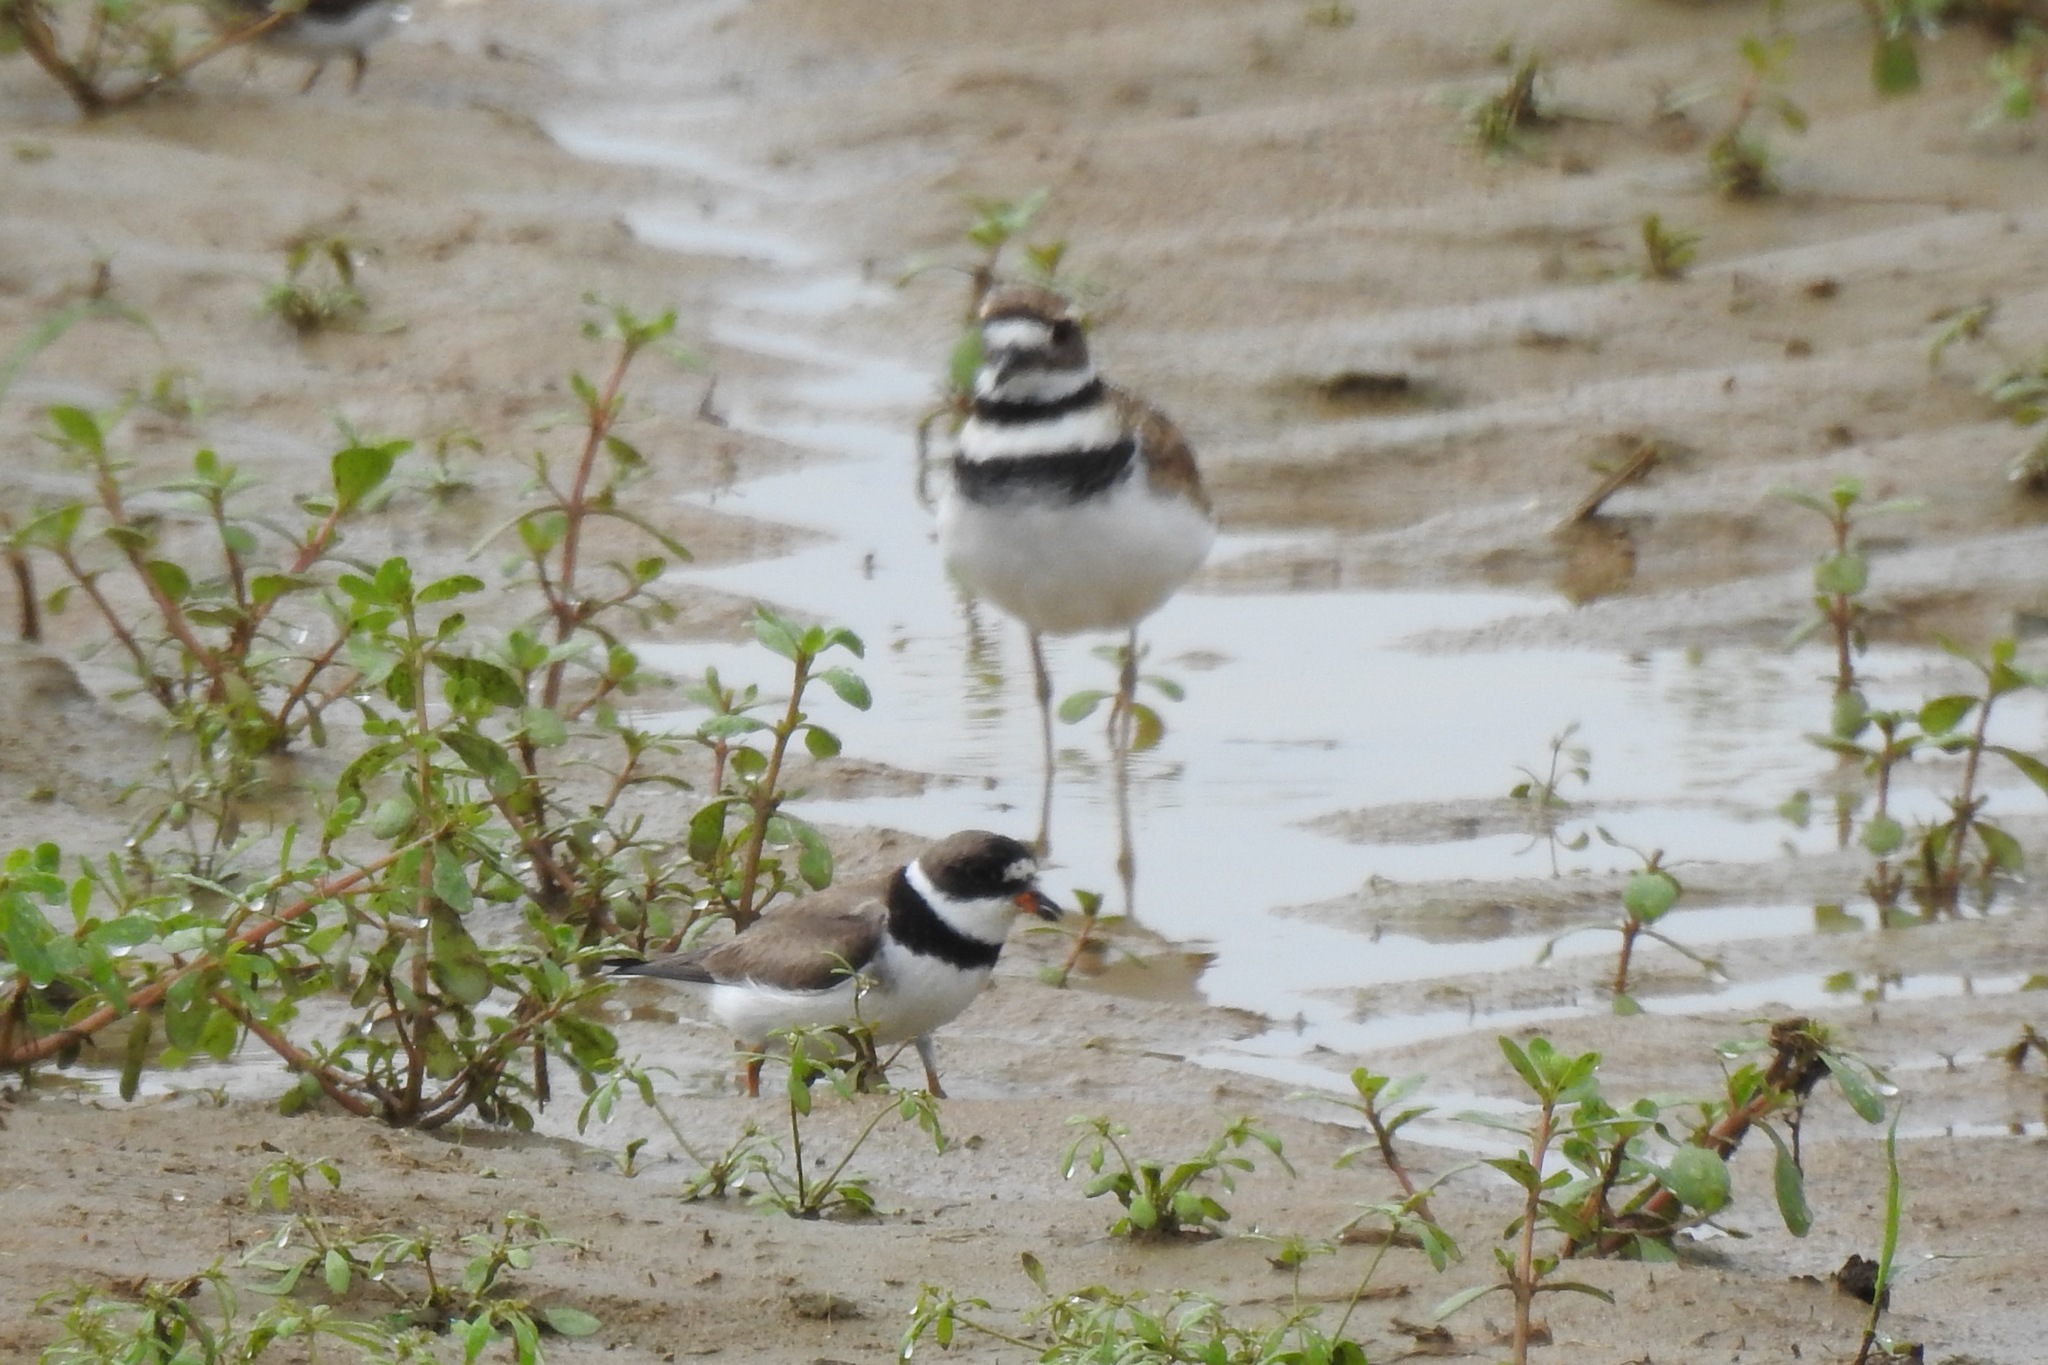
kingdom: Animalia
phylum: Chordata
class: Aves
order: Charadriiformes
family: Charadriidae
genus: Charadrius
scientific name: Charadrius vociferus
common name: Killdeer
